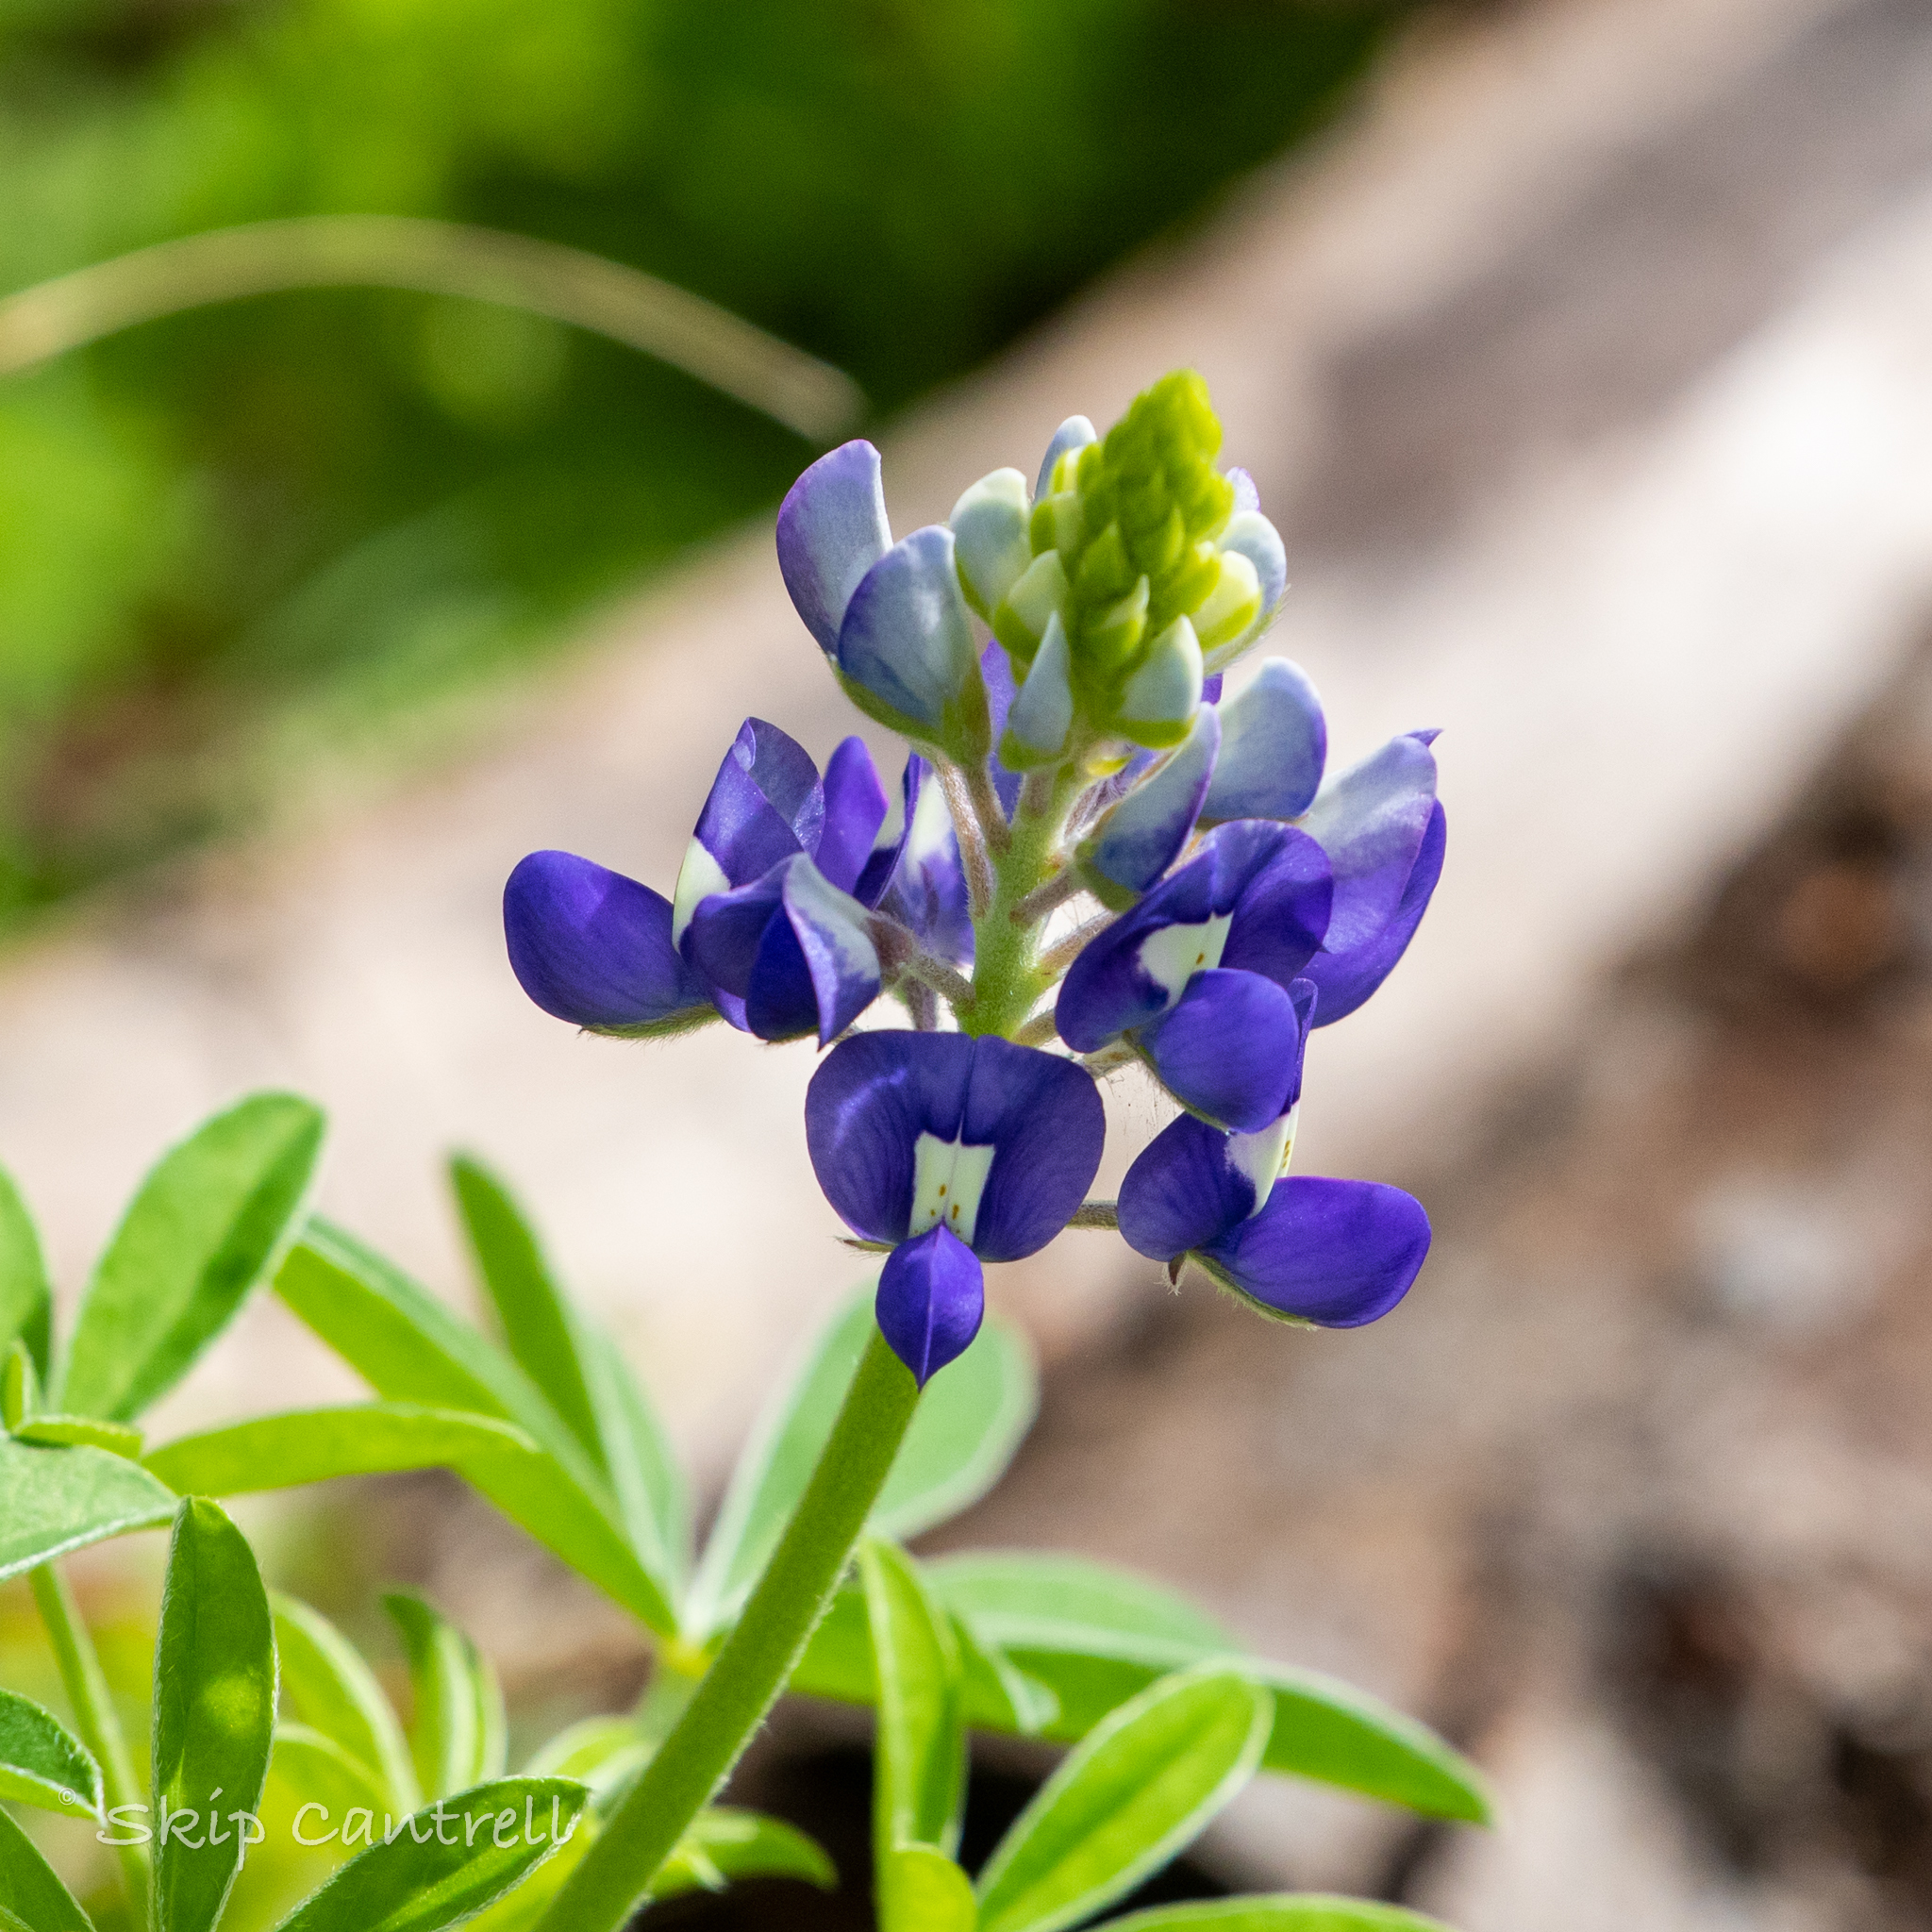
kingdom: Plantae
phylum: Tracheophyta
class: Magnoliopsida
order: Fabales
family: Fabaceae
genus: Lupinus
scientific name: Lupinus texensis
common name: Texas bluebonnet
